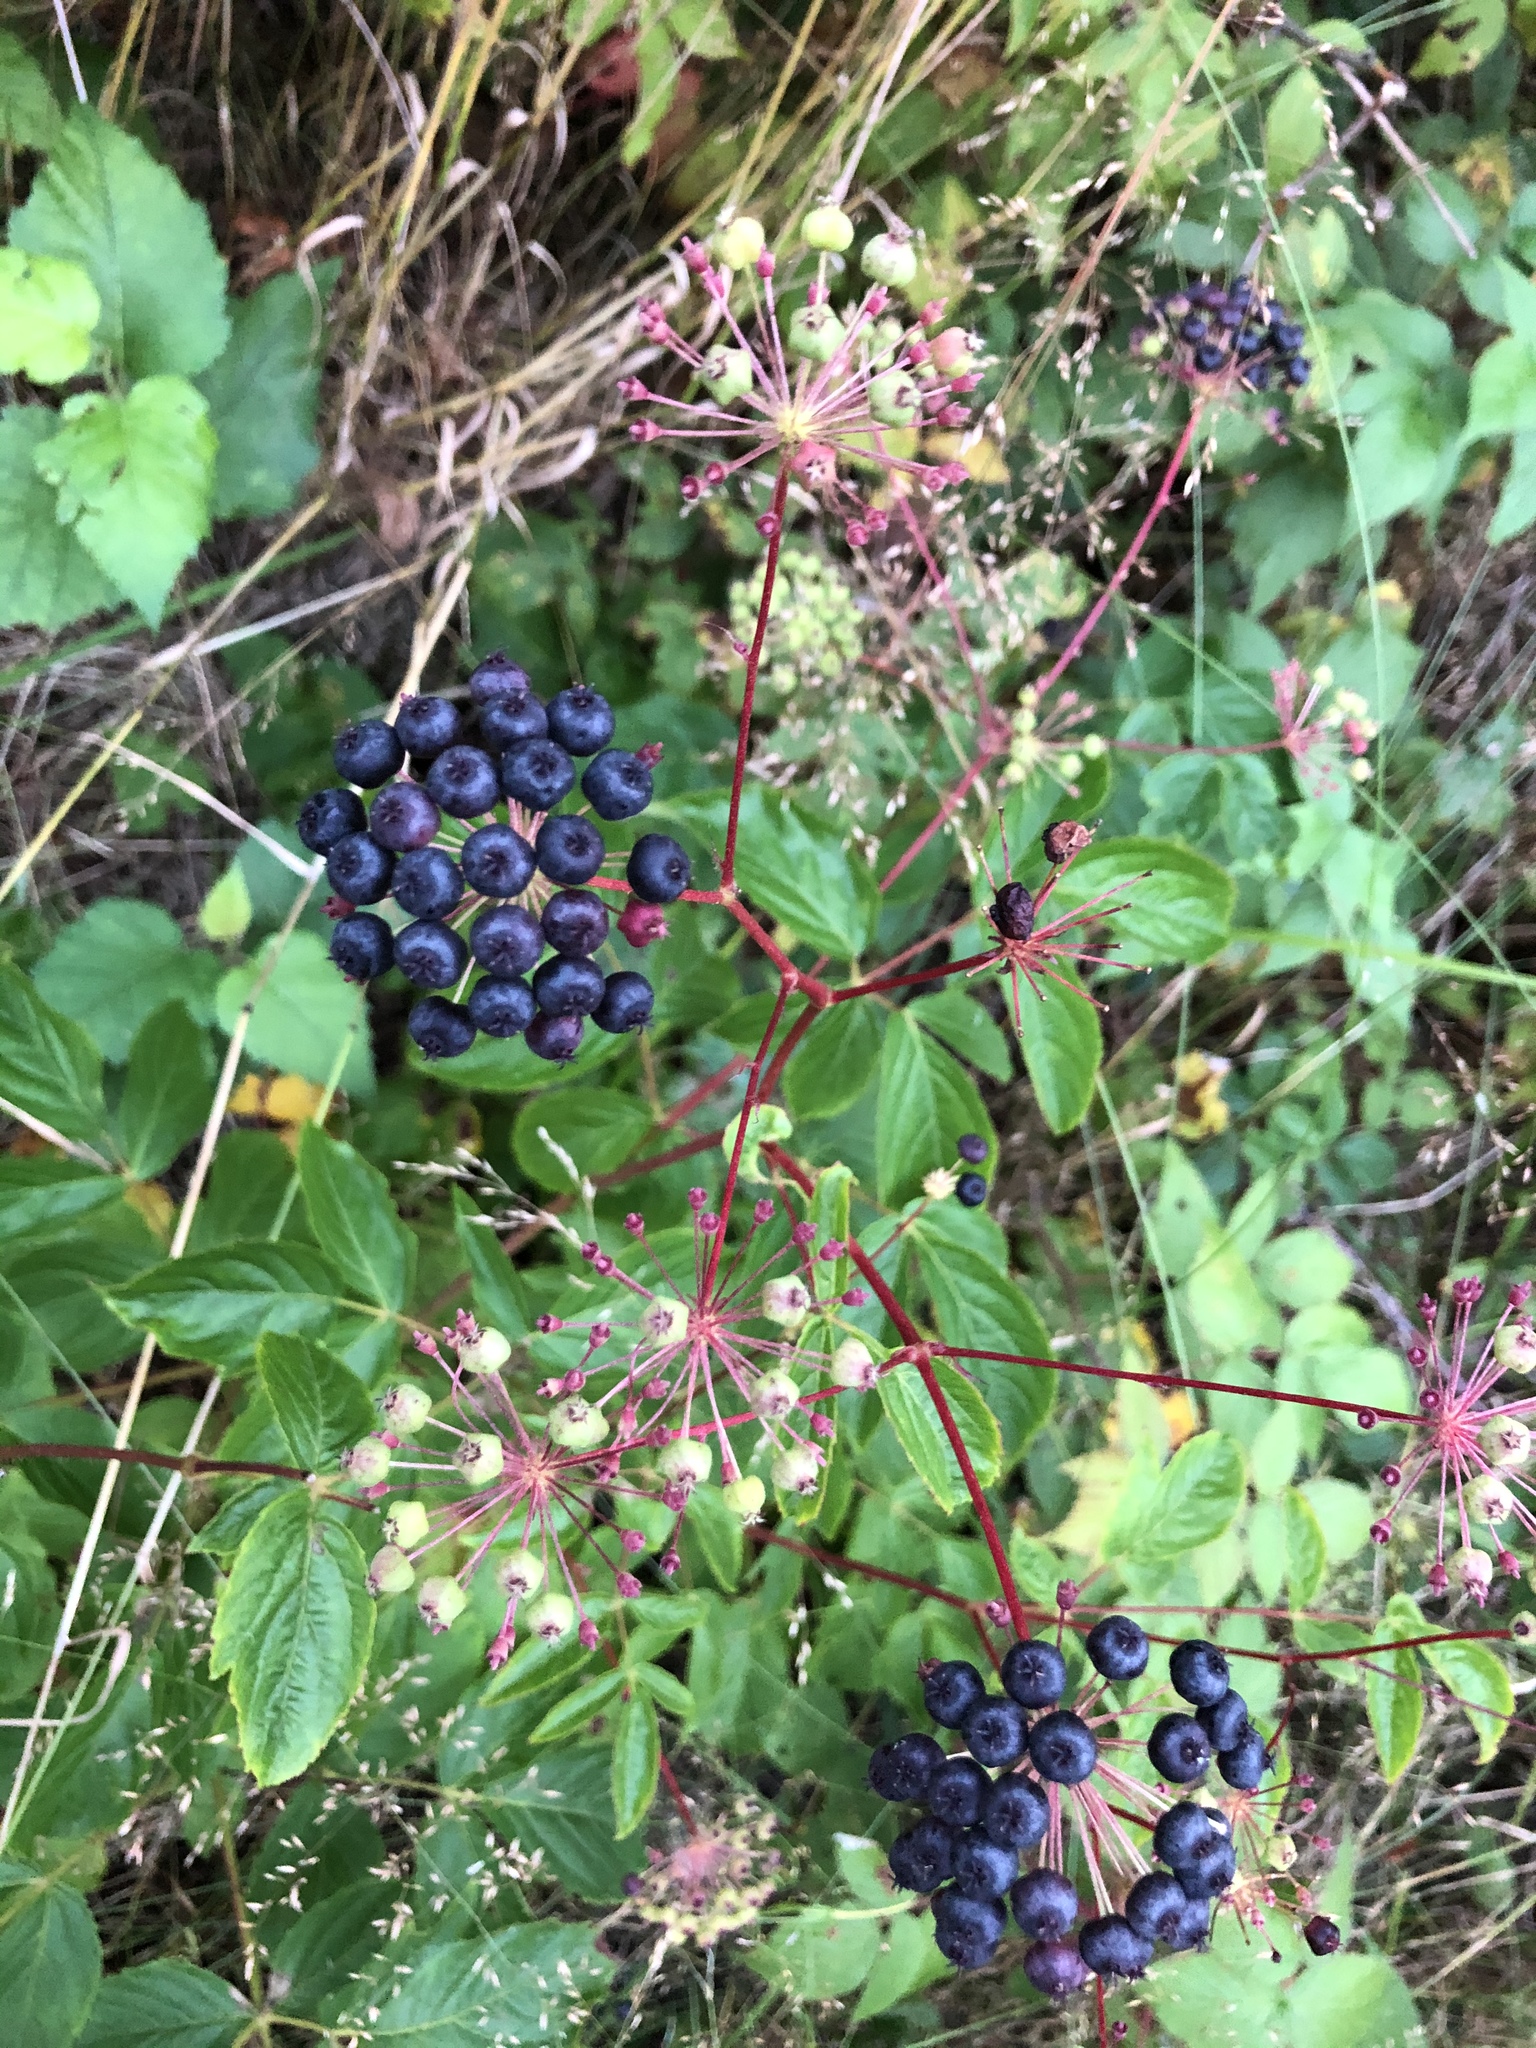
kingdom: Plantae
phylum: Tracheophyta
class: Magnoliopsida
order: Apiales
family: Araliaceae
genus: Aralia
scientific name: Aralia hispida
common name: Bristly sarsaparilla
